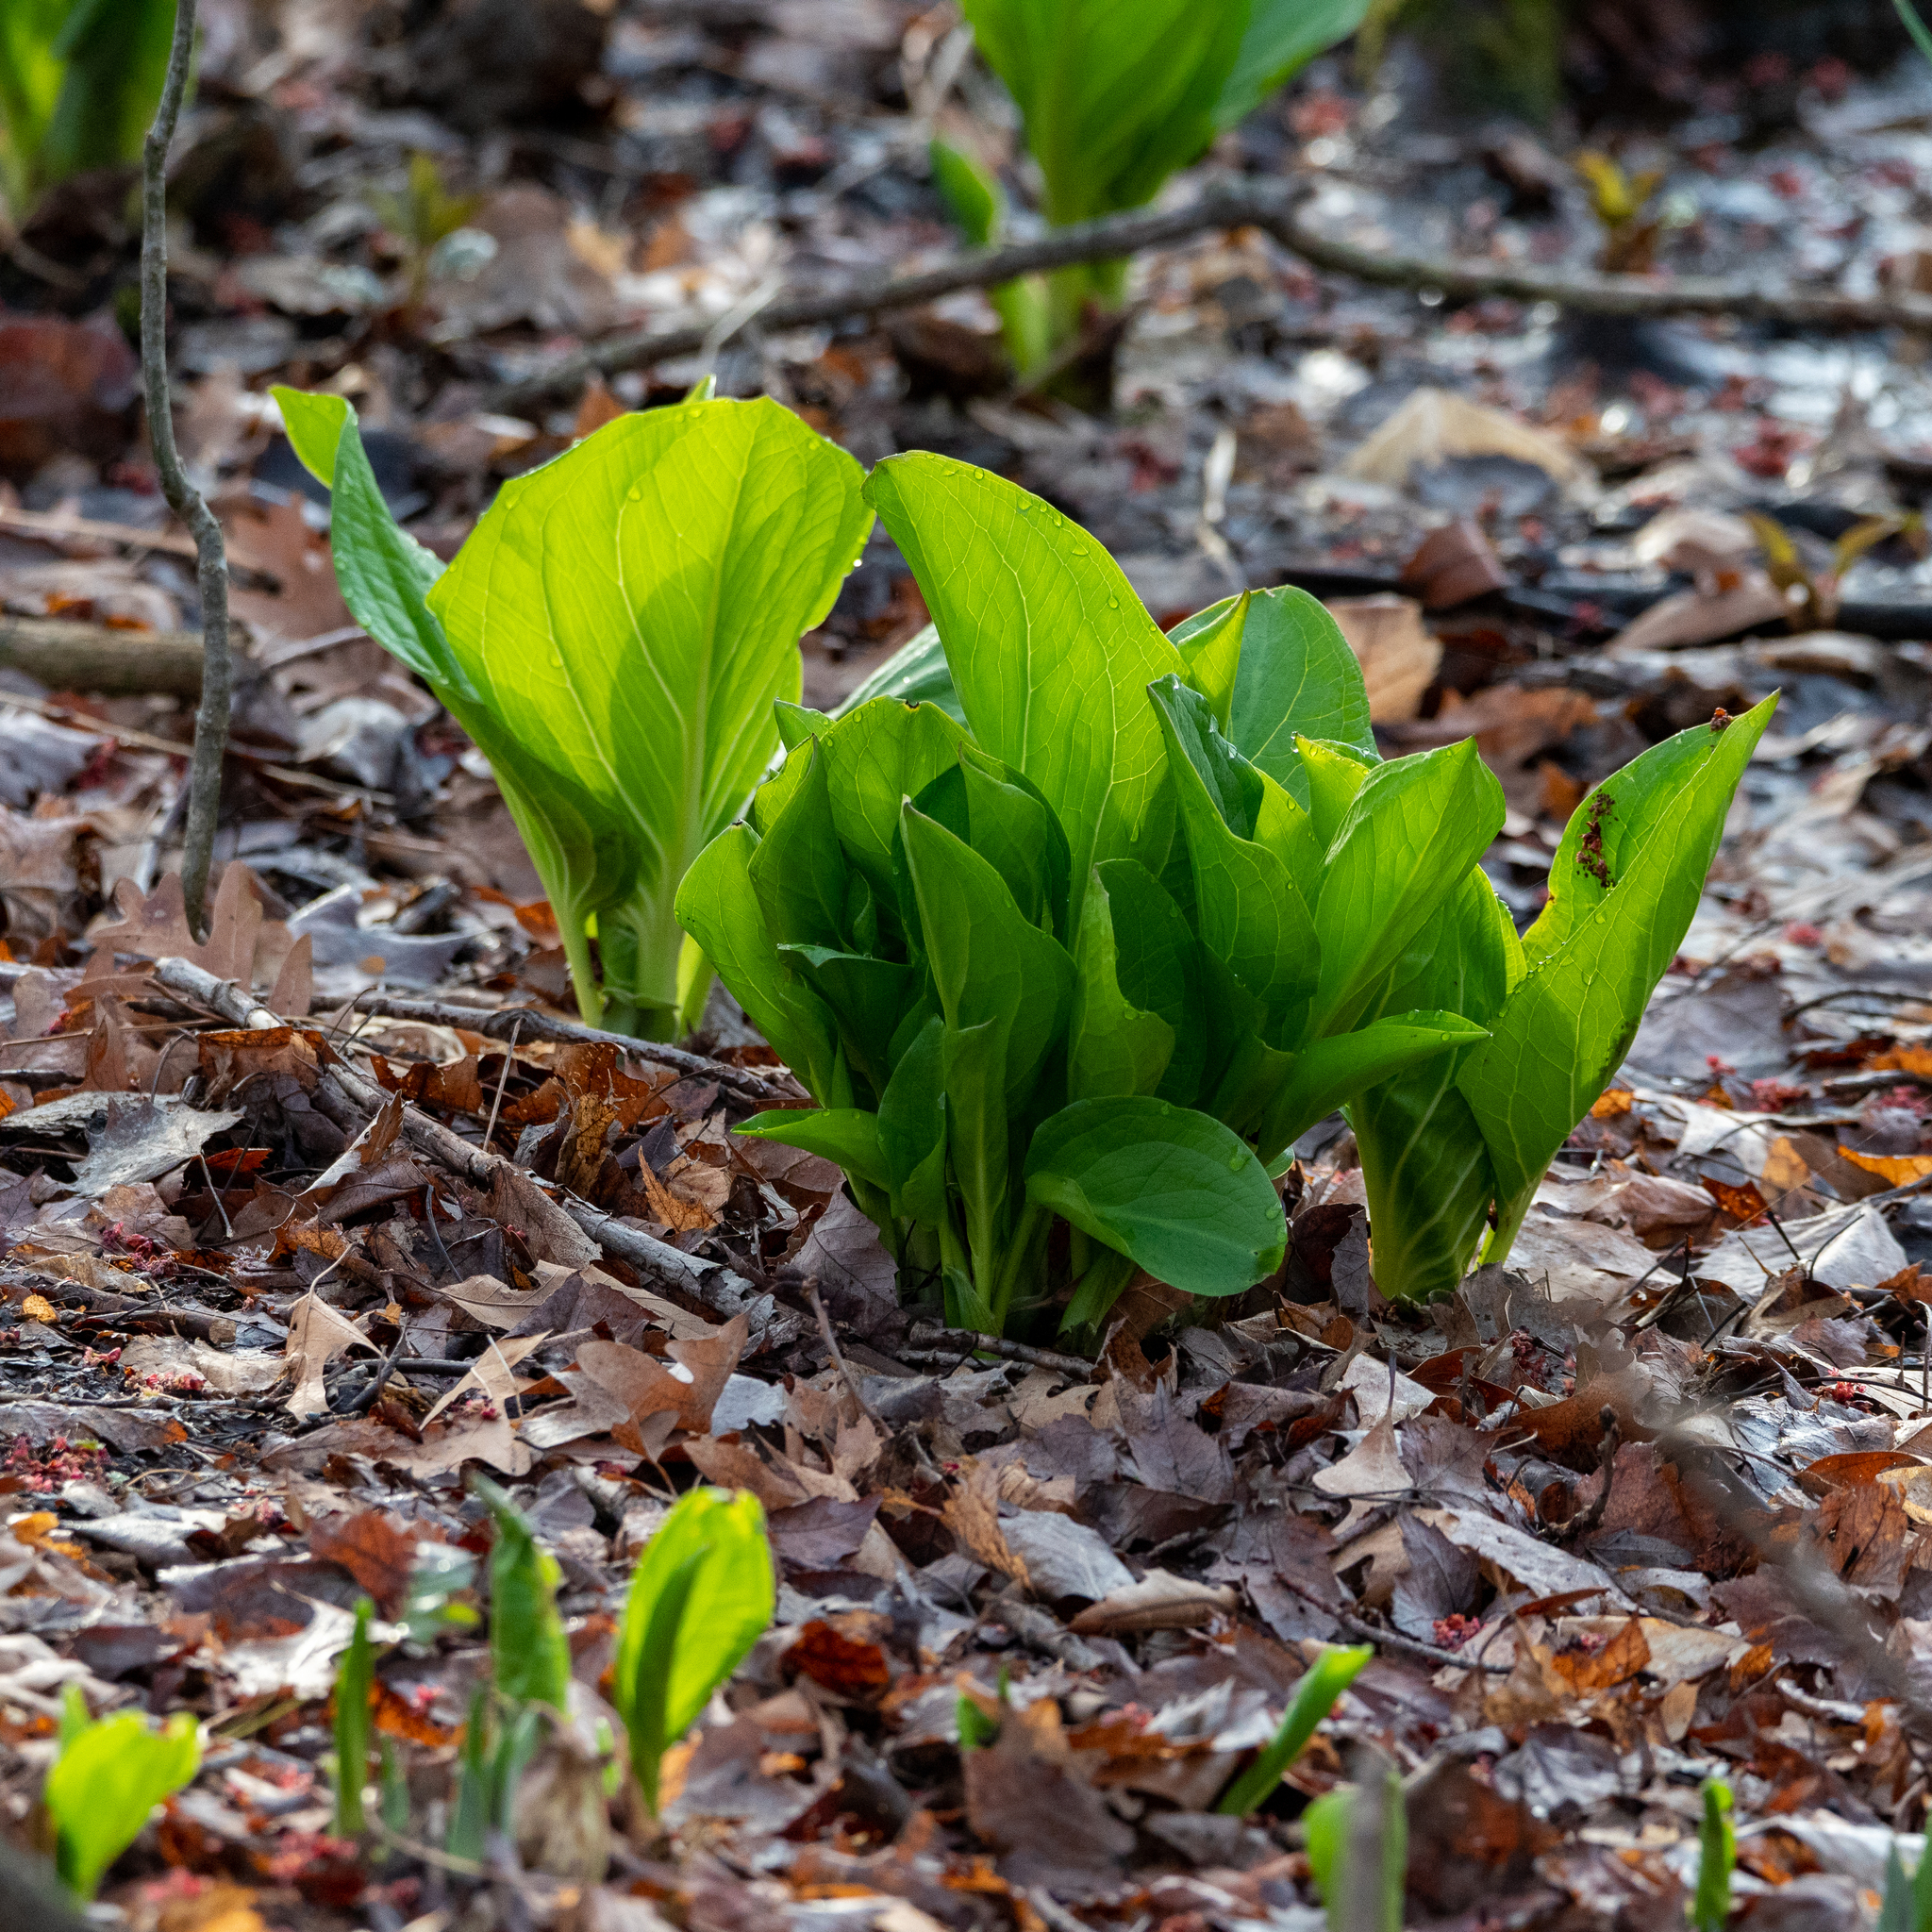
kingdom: Plantae
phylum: Tracheophyta
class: Liliopsida
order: Alismatales
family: Araceae
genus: Symplocarpus
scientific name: Symplocarpus foetidus
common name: Eastern skunk cabbage
